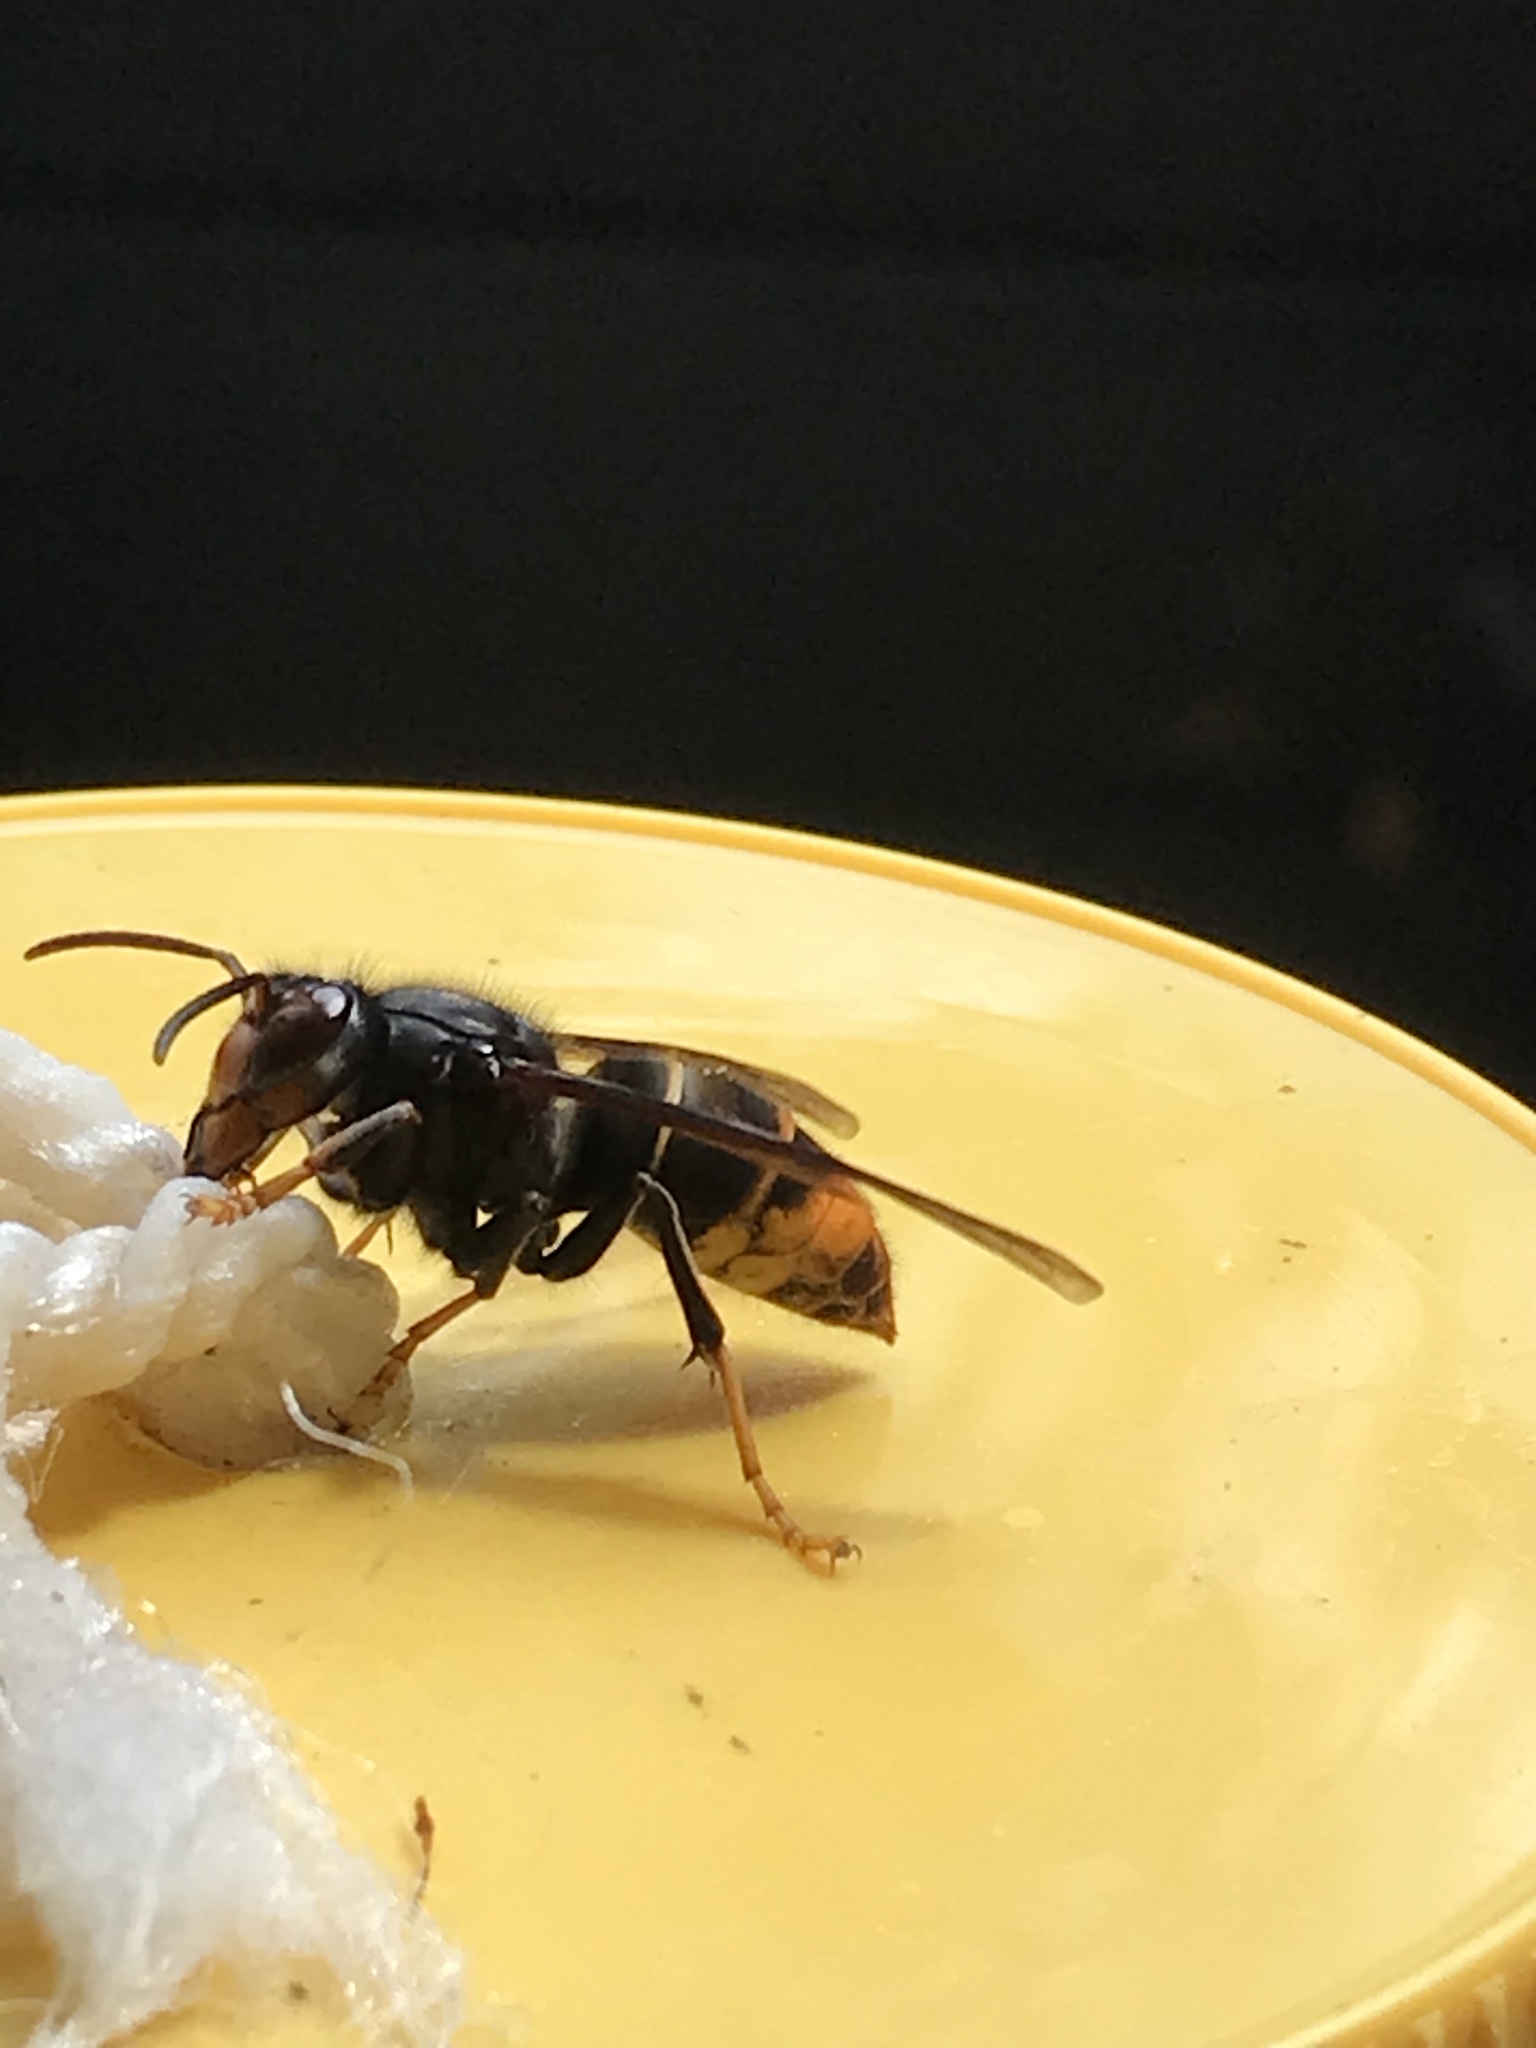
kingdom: Animalia
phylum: Arthropoda
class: Insecta
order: Hymenoptera
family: Vespidae
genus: Vespa
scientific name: Vespa velutina
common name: Asian hornet
